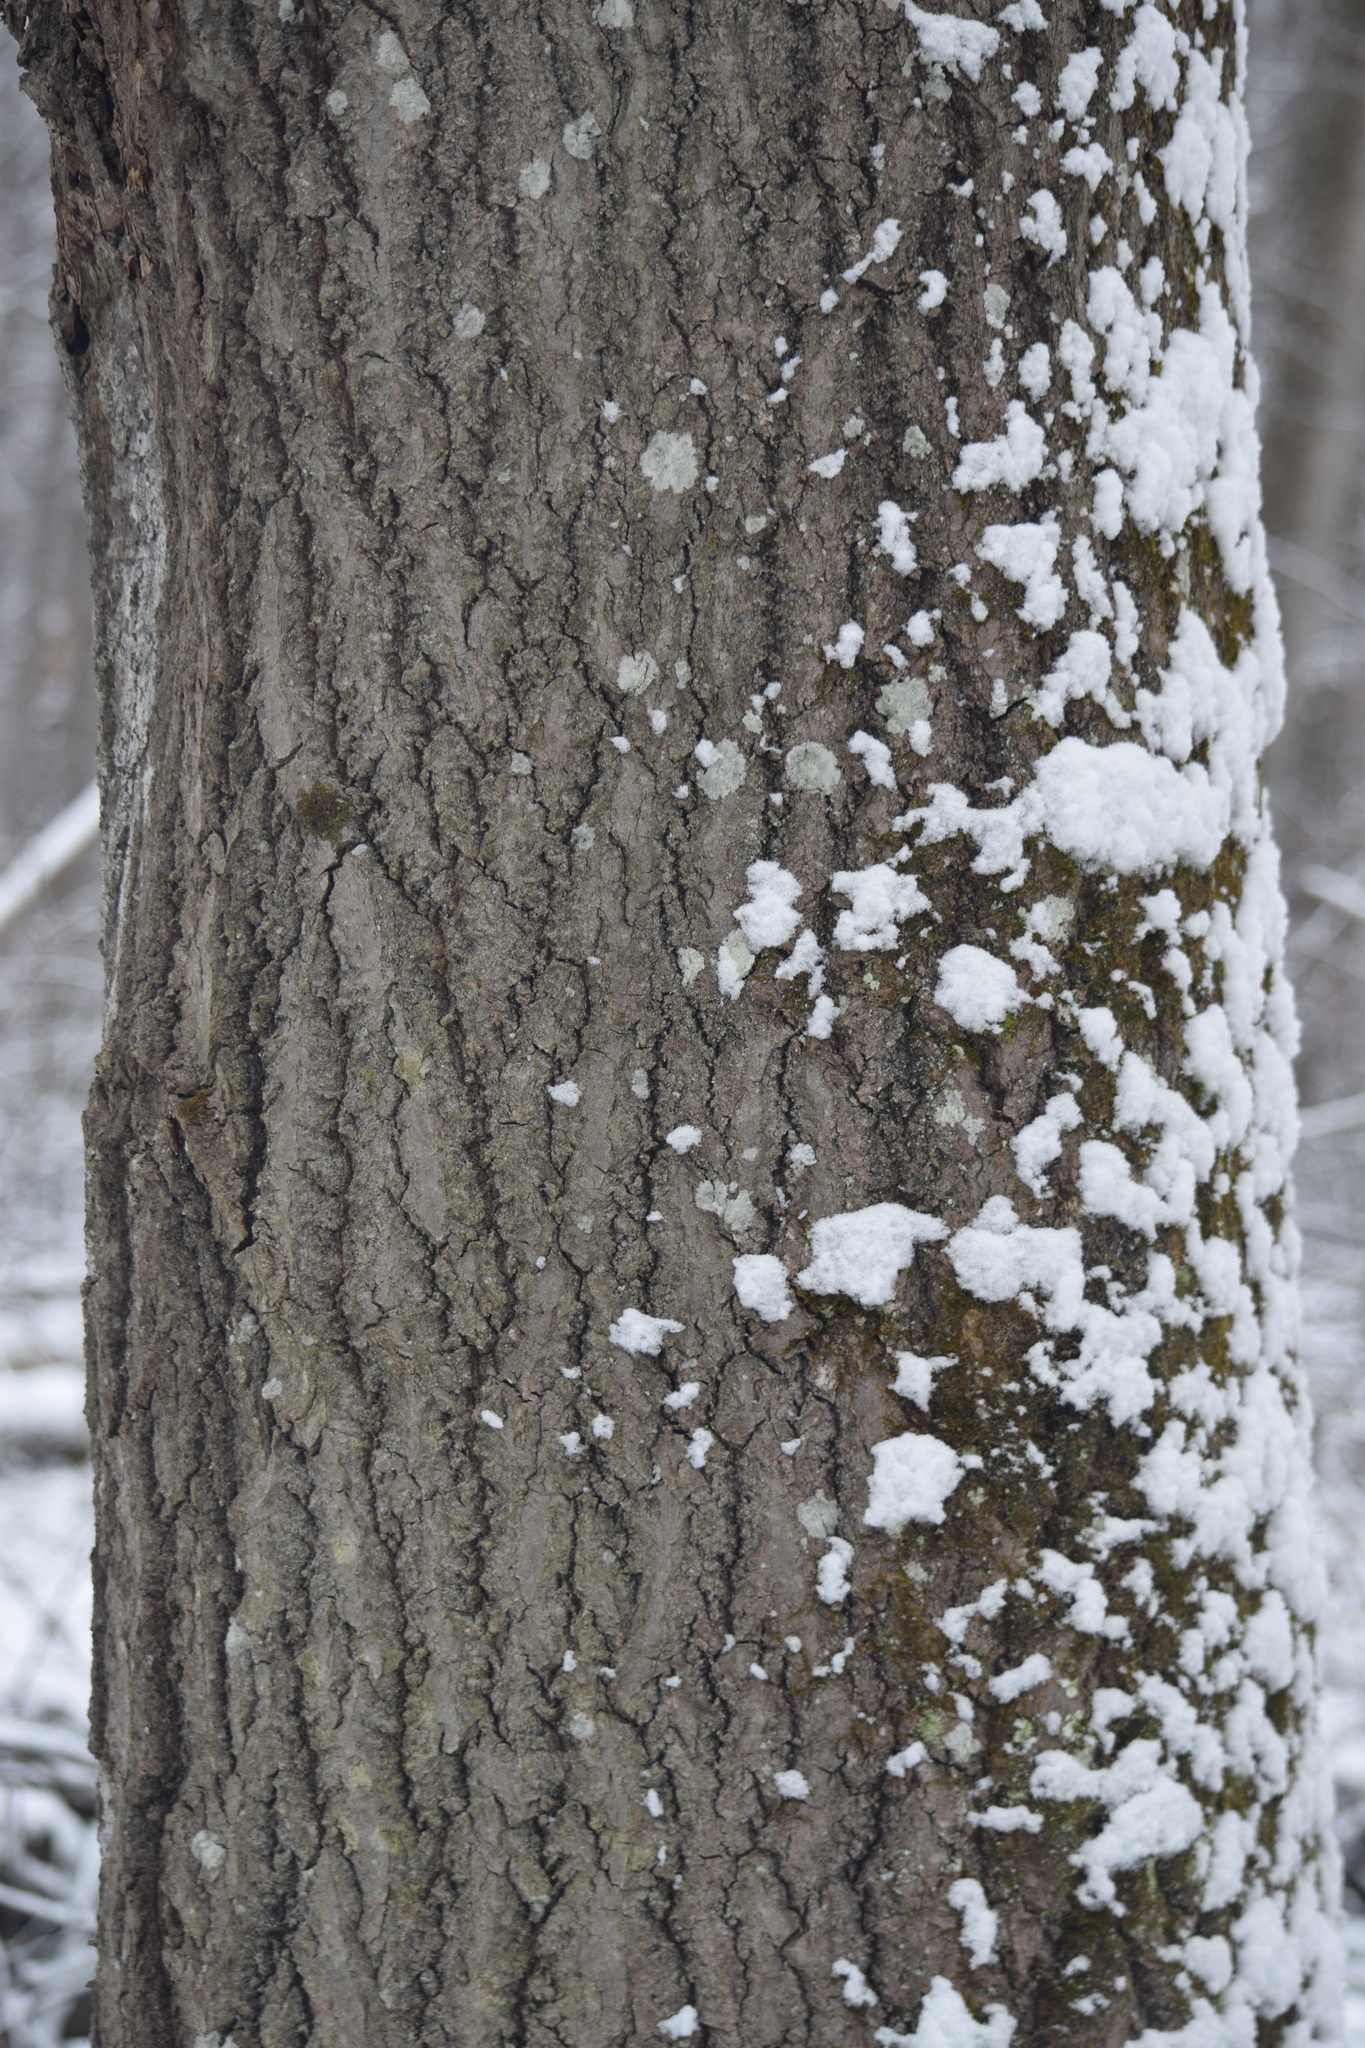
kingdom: Plantae
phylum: Tracheophyta
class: Magnoliopsida
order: Malpighiales
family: Salicaceae
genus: Populus
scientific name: Populus tremula
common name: European aspen
